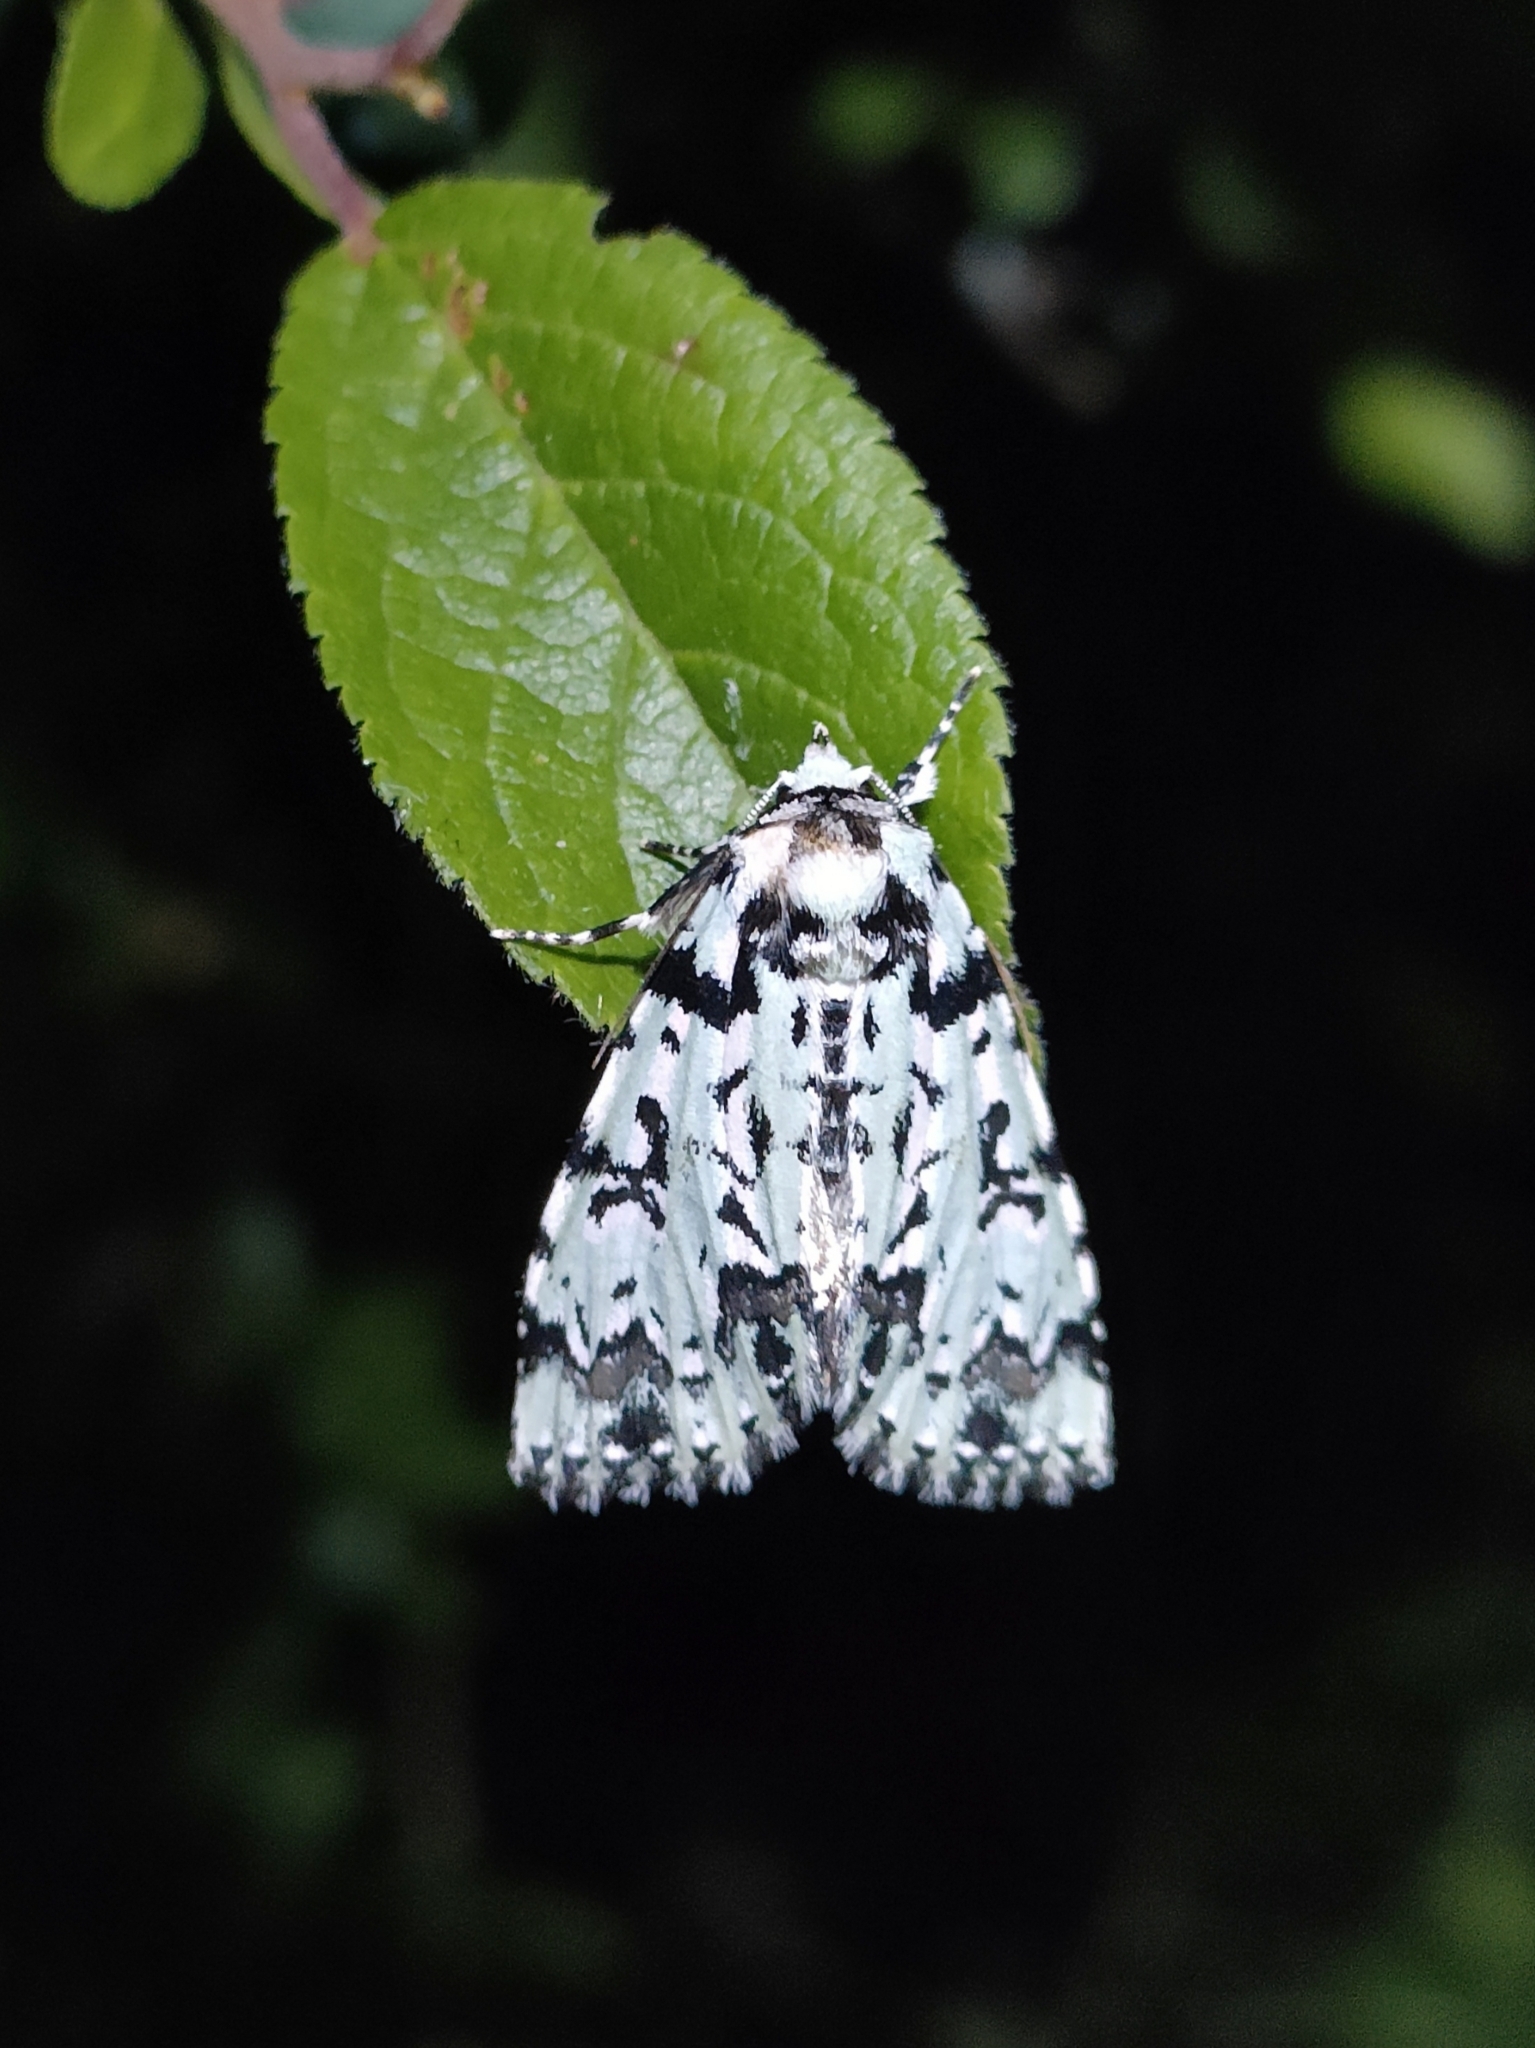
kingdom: Animalia
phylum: Arthropoda
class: Insecta
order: Lepidoptera
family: Noctuidae
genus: Moma
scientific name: Moma alpium
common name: Scarce merveille du jour
